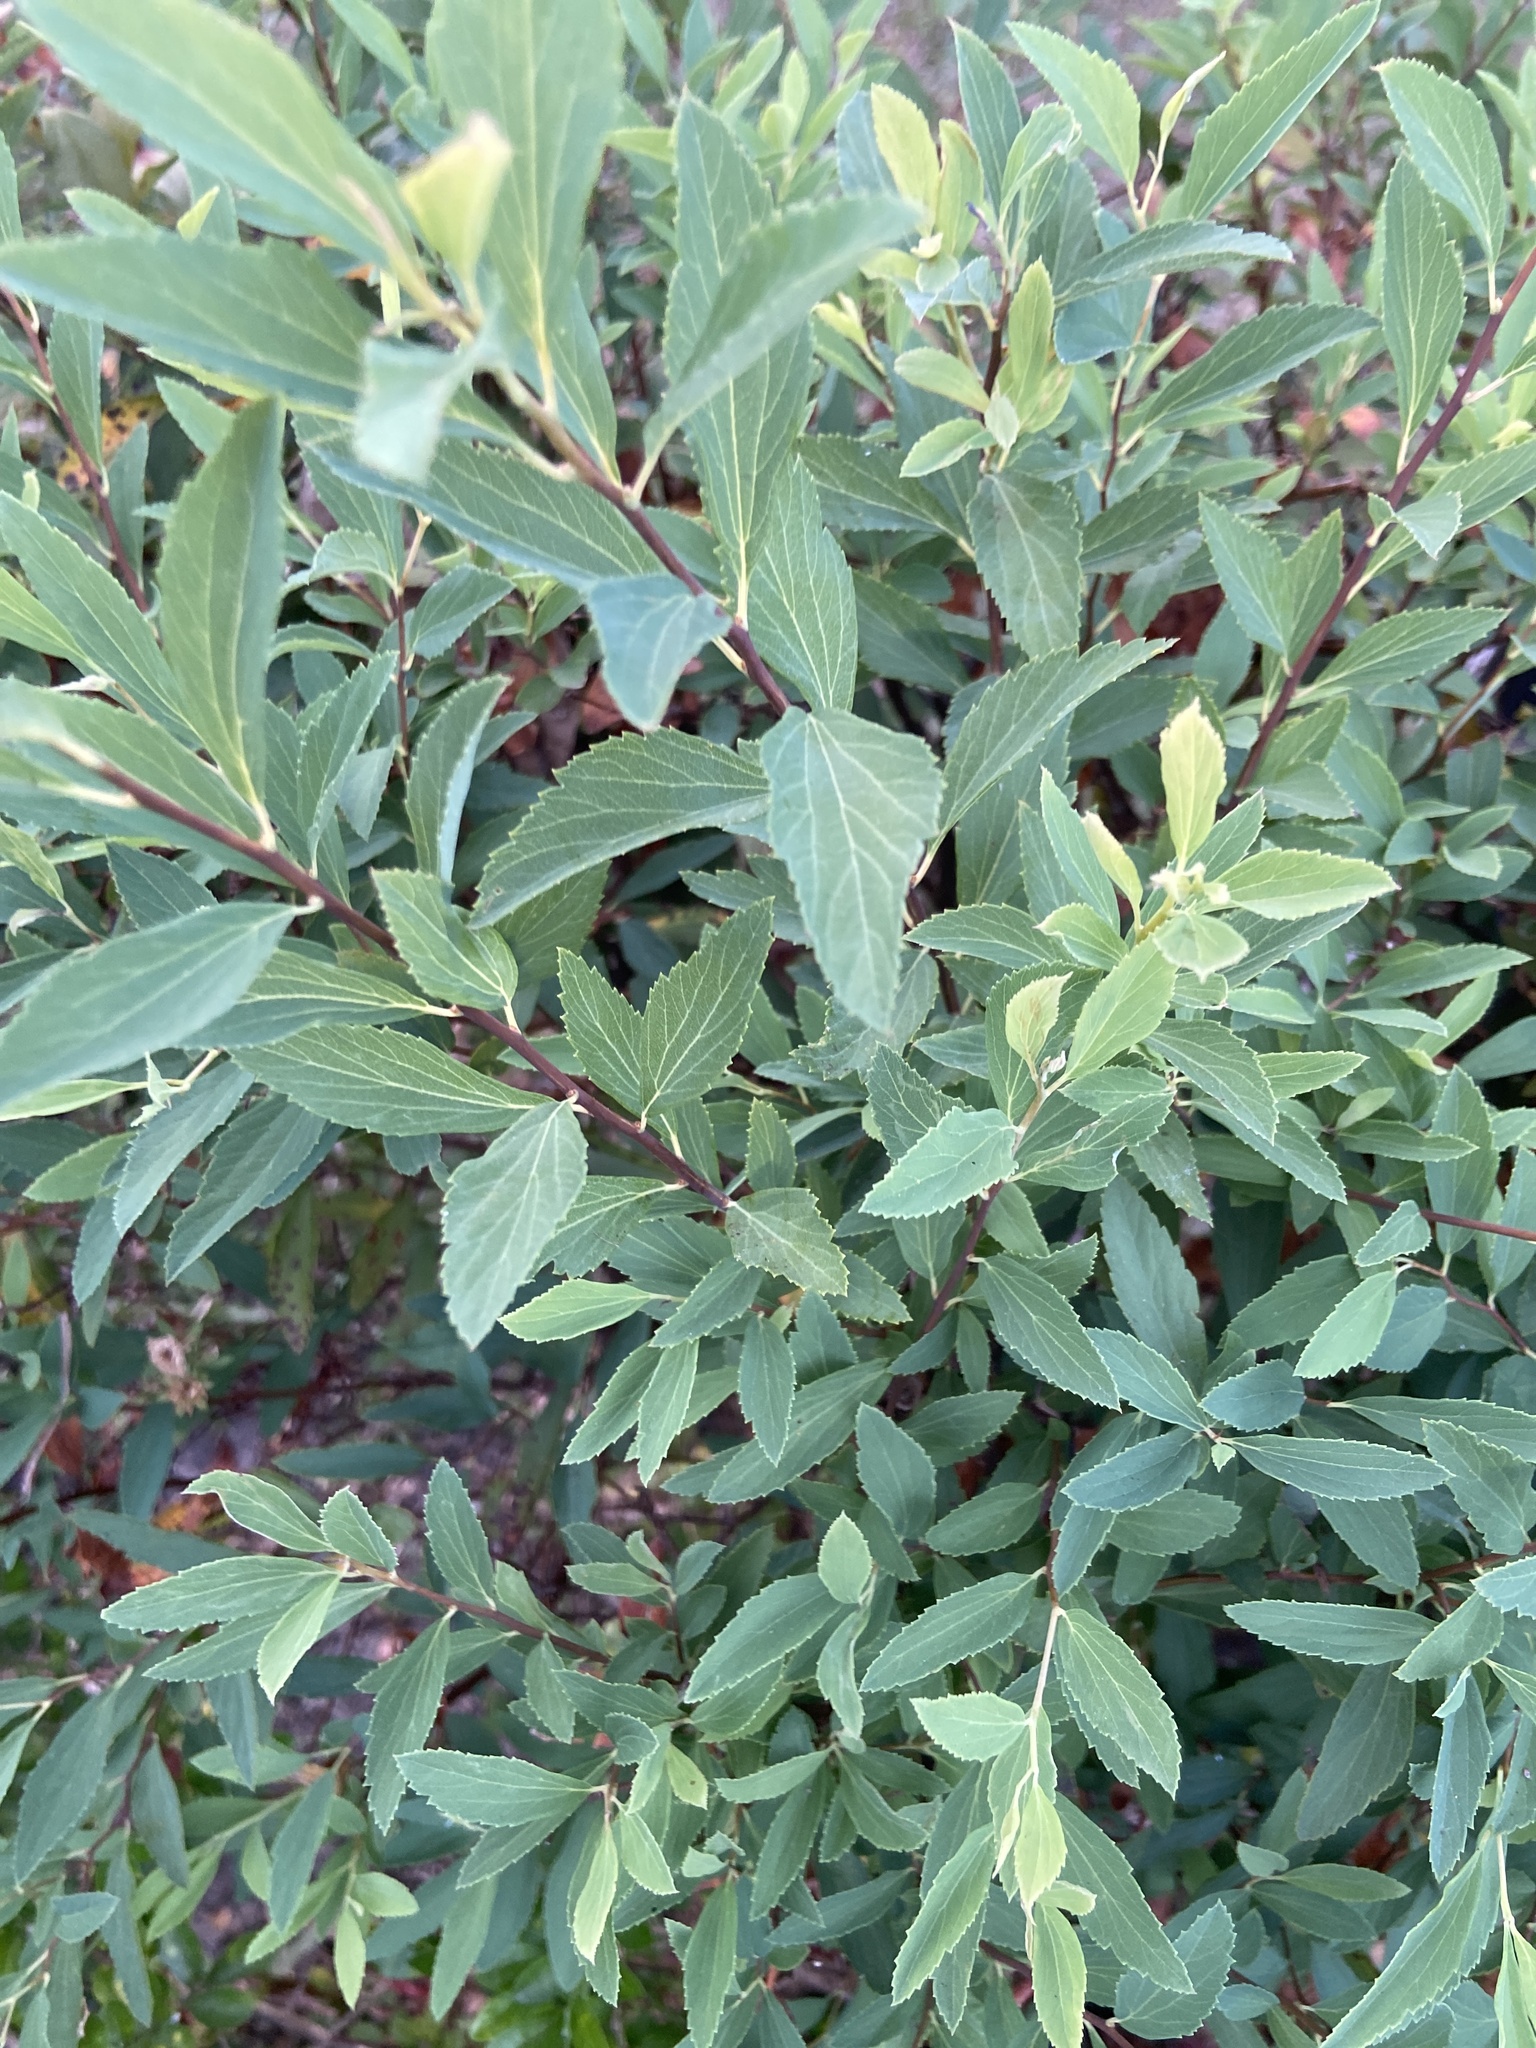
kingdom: Plantae
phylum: Tracheophyta
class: Magnoliopsida
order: Malvales
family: Malvaceae
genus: Sida
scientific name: Sida rhombifolia
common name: Queensland-hemp
